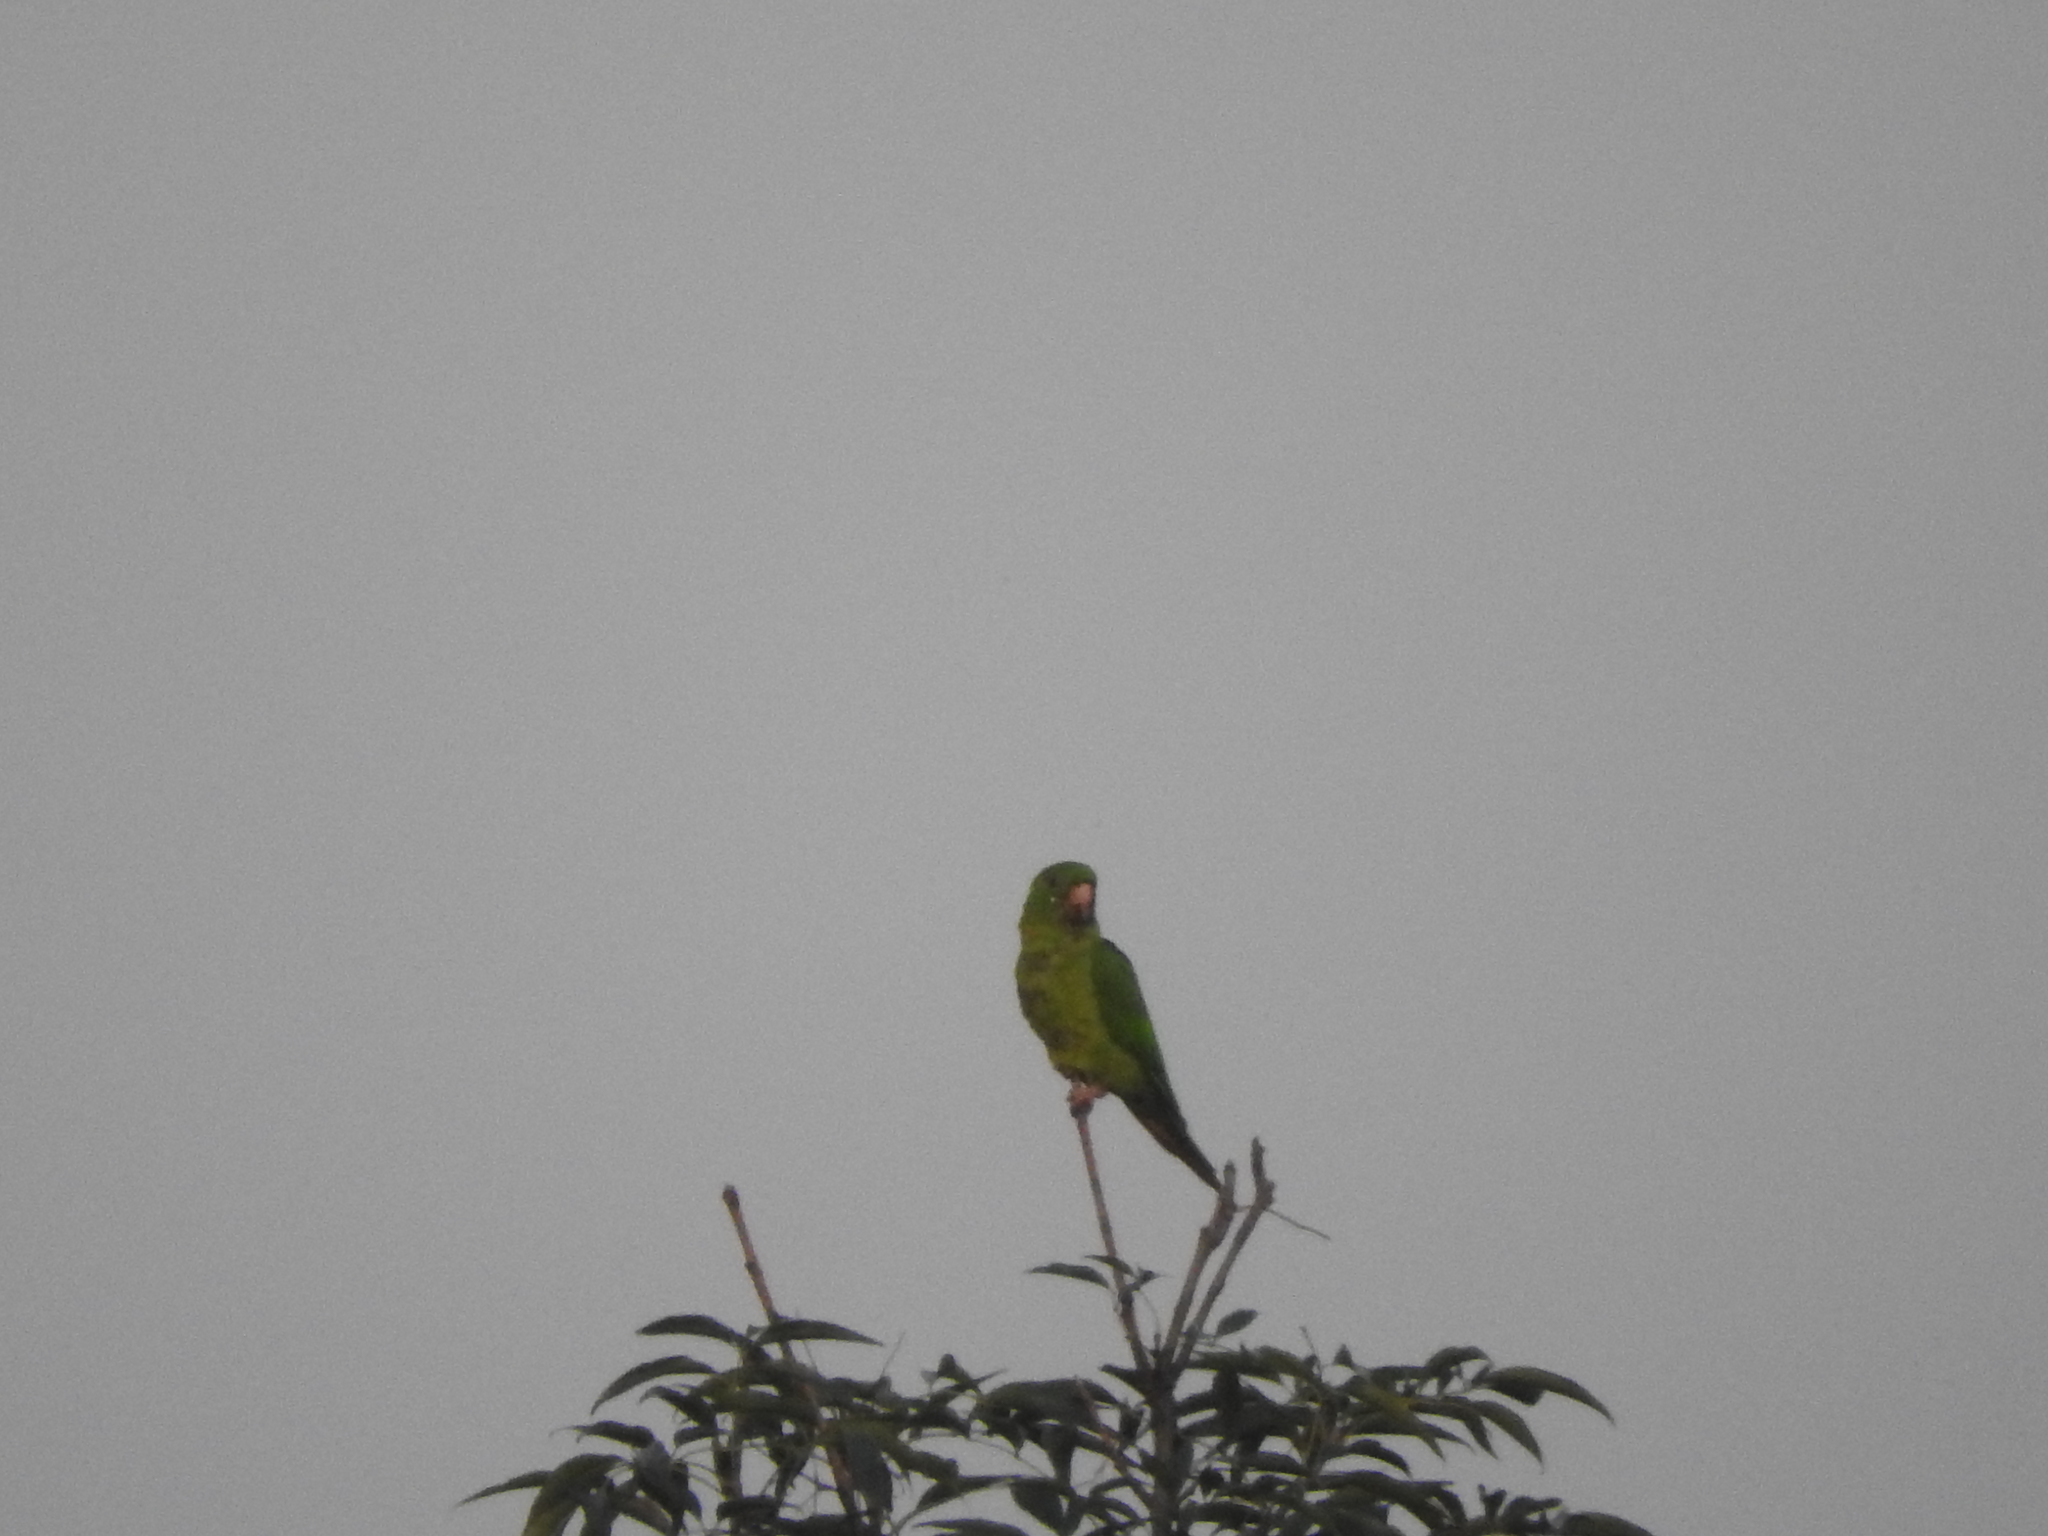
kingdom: Animalia
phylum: Chordata
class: Aves
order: Psittaciformes
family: Psittacidae
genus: Aratinga
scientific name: Aratinga holochlora
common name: Green parakeet
